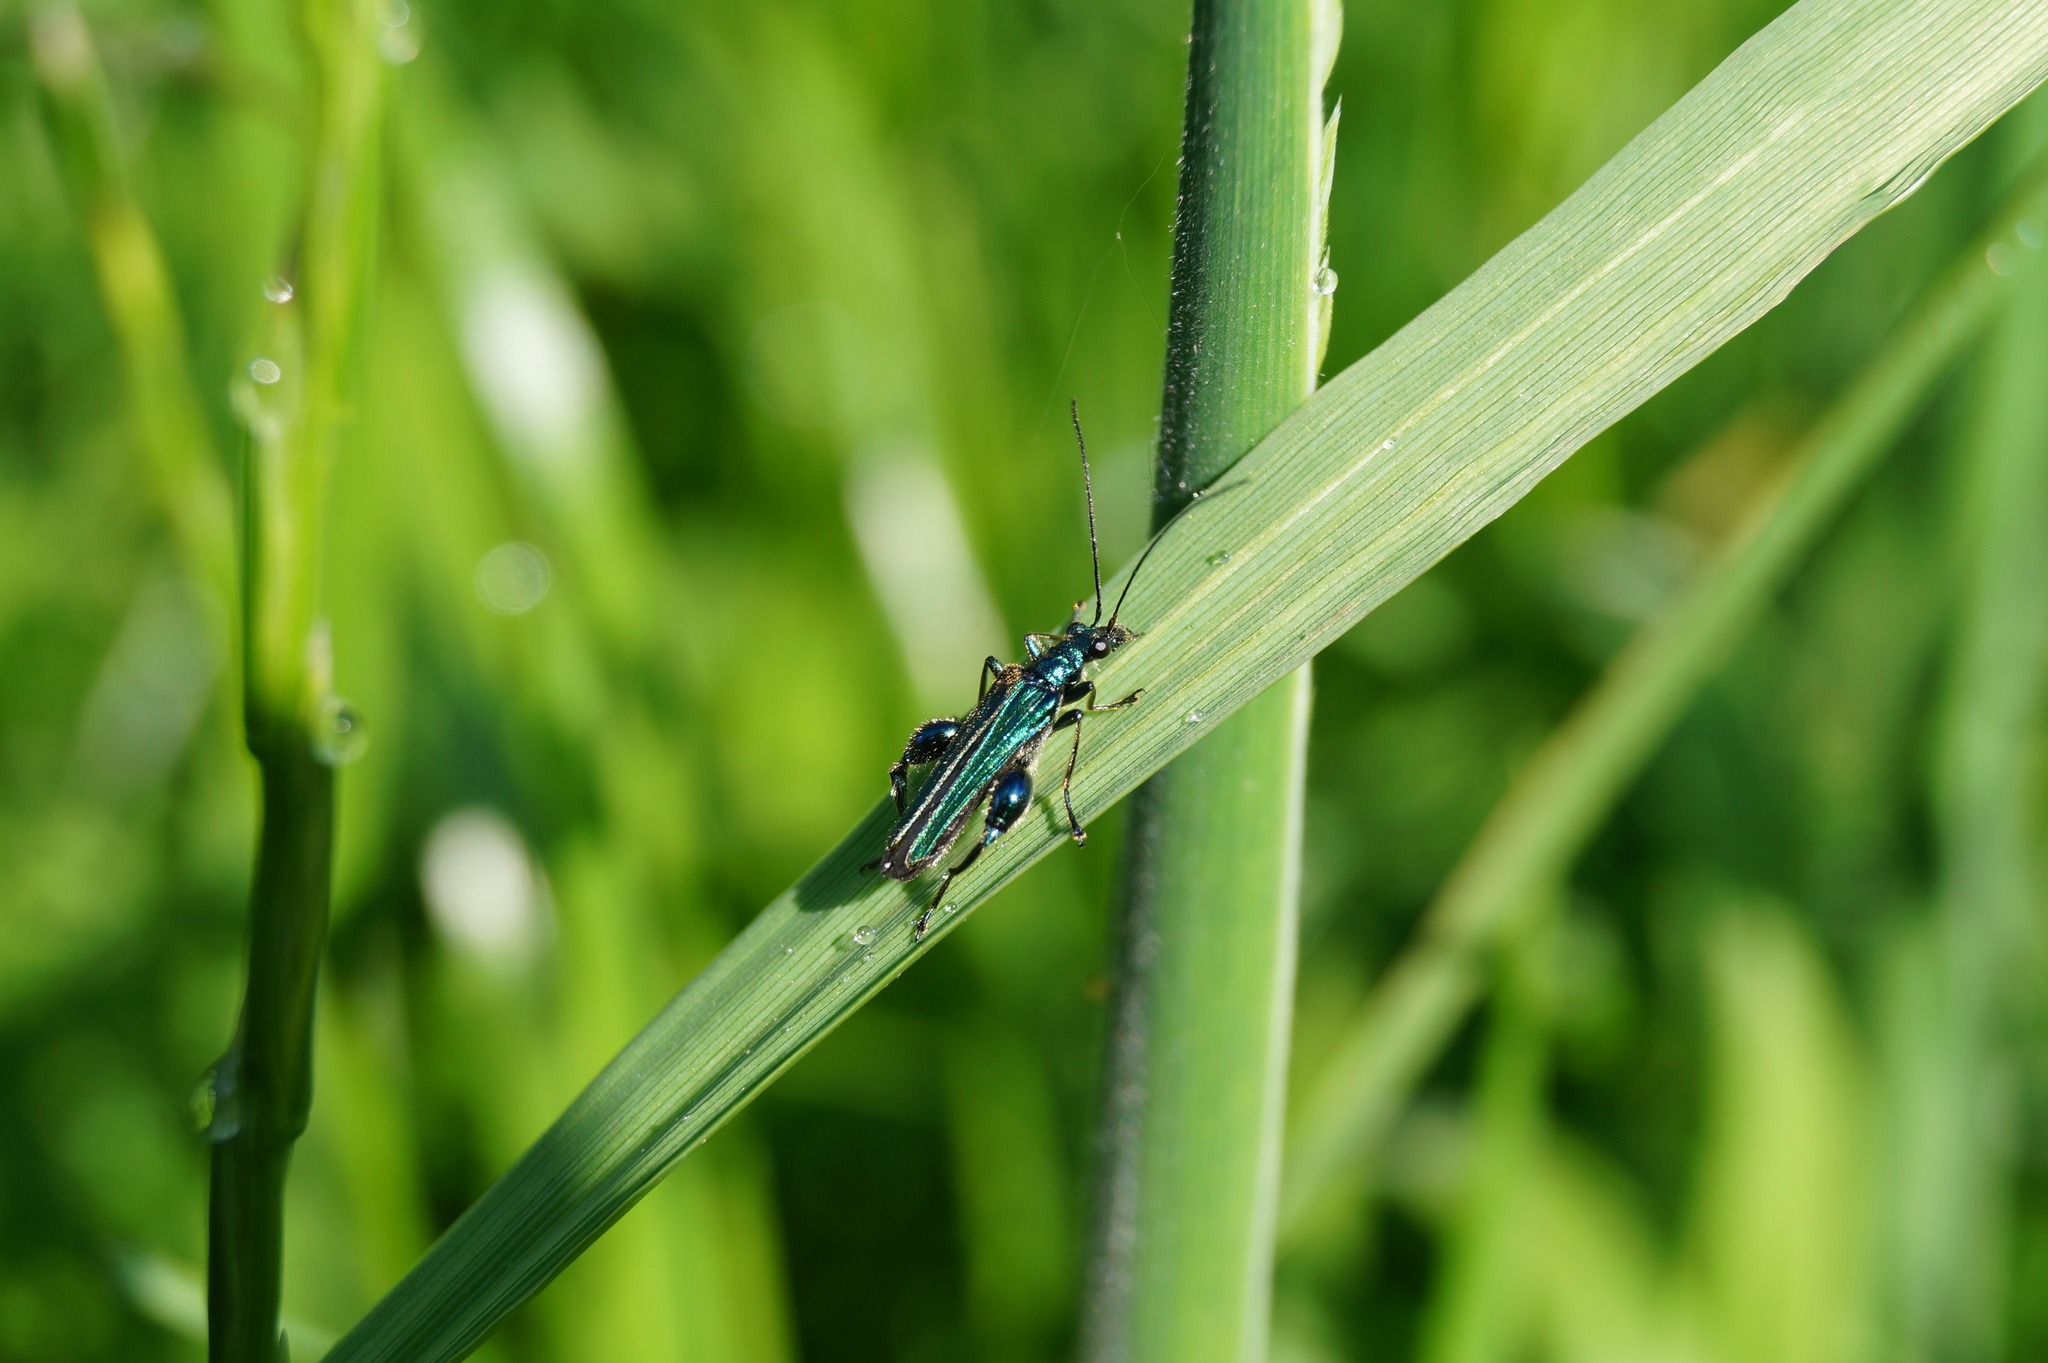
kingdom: Animalia
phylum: Arthropoda
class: Insecta
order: Coleoptera
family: Oedemeridae
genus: Oedemera
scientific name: Oedemera nobilis
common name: Swollen-thighed beetle
